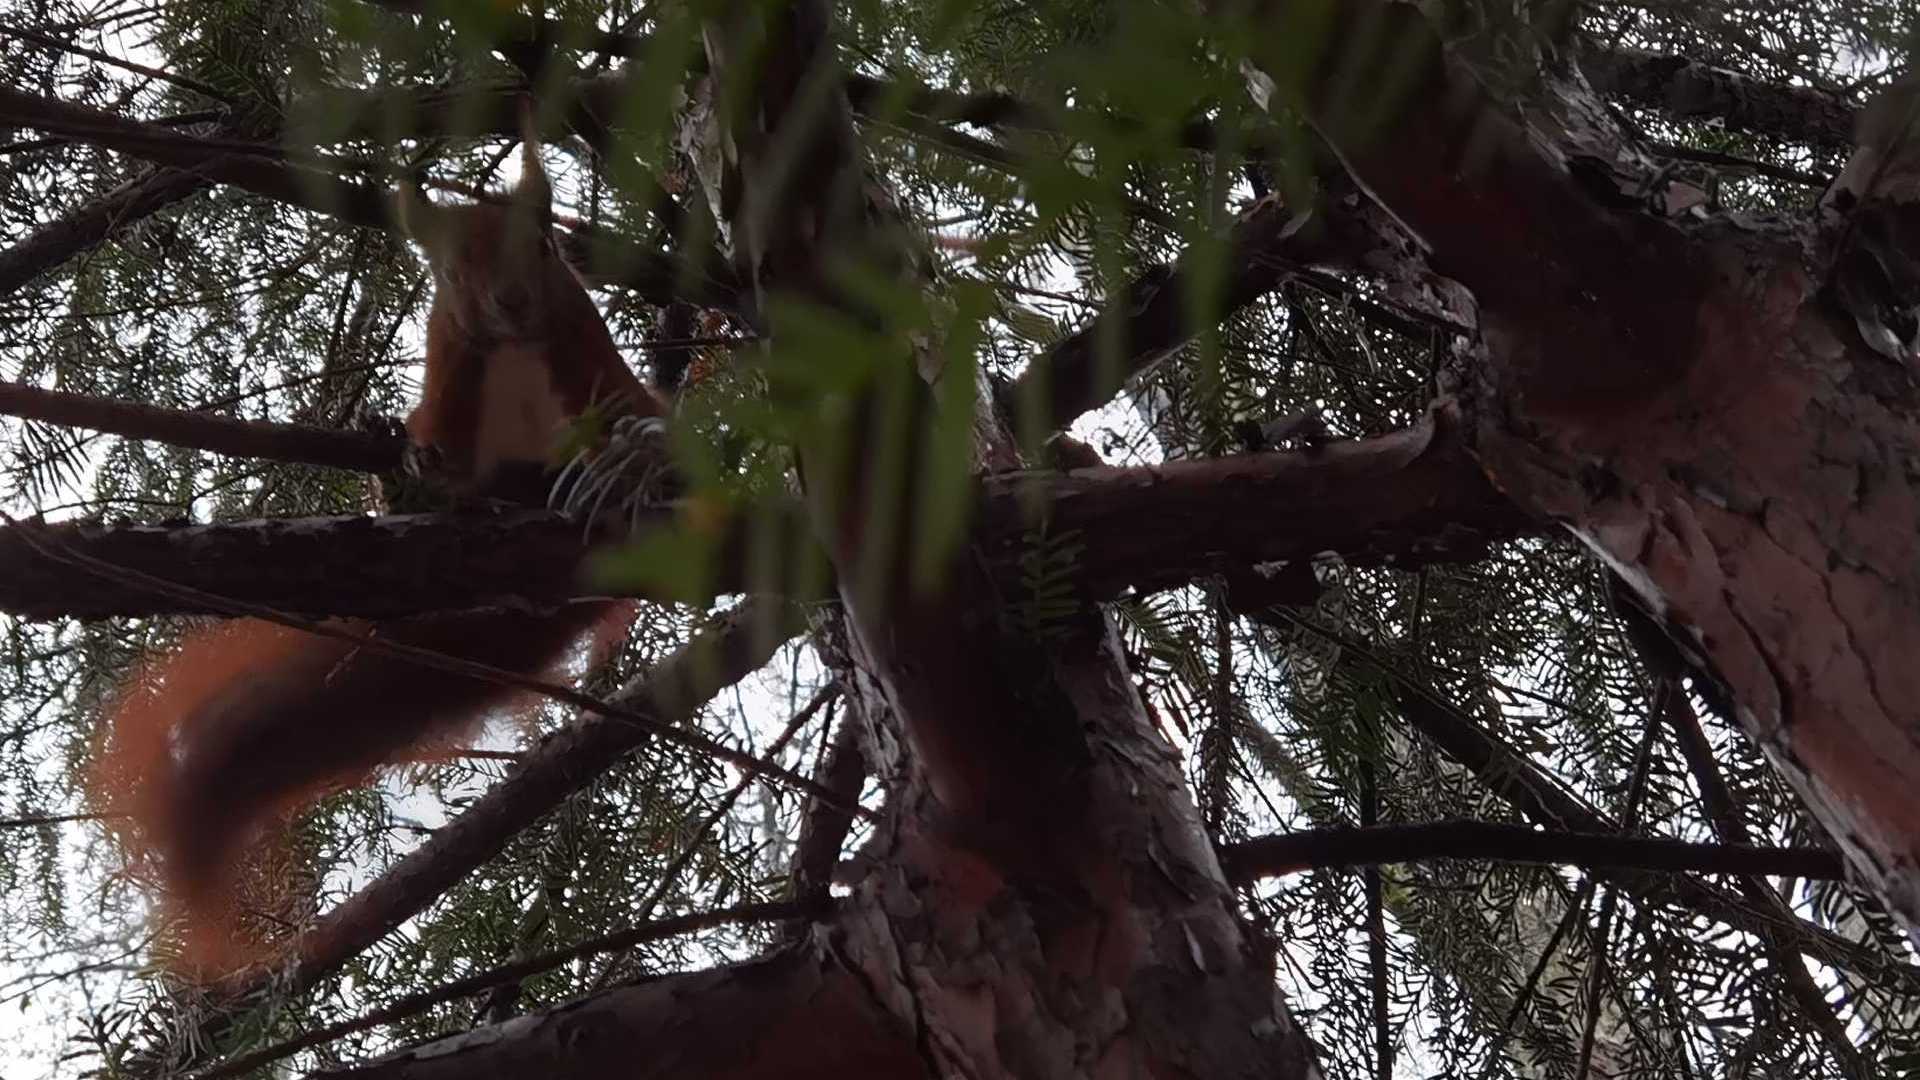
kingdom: Animalia
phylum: Chordata
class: Mammalia
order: Rodentia
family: Sciuridae
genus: Sciurus
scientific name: Sciurus vulgaris
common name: Eurasian red squirrel
